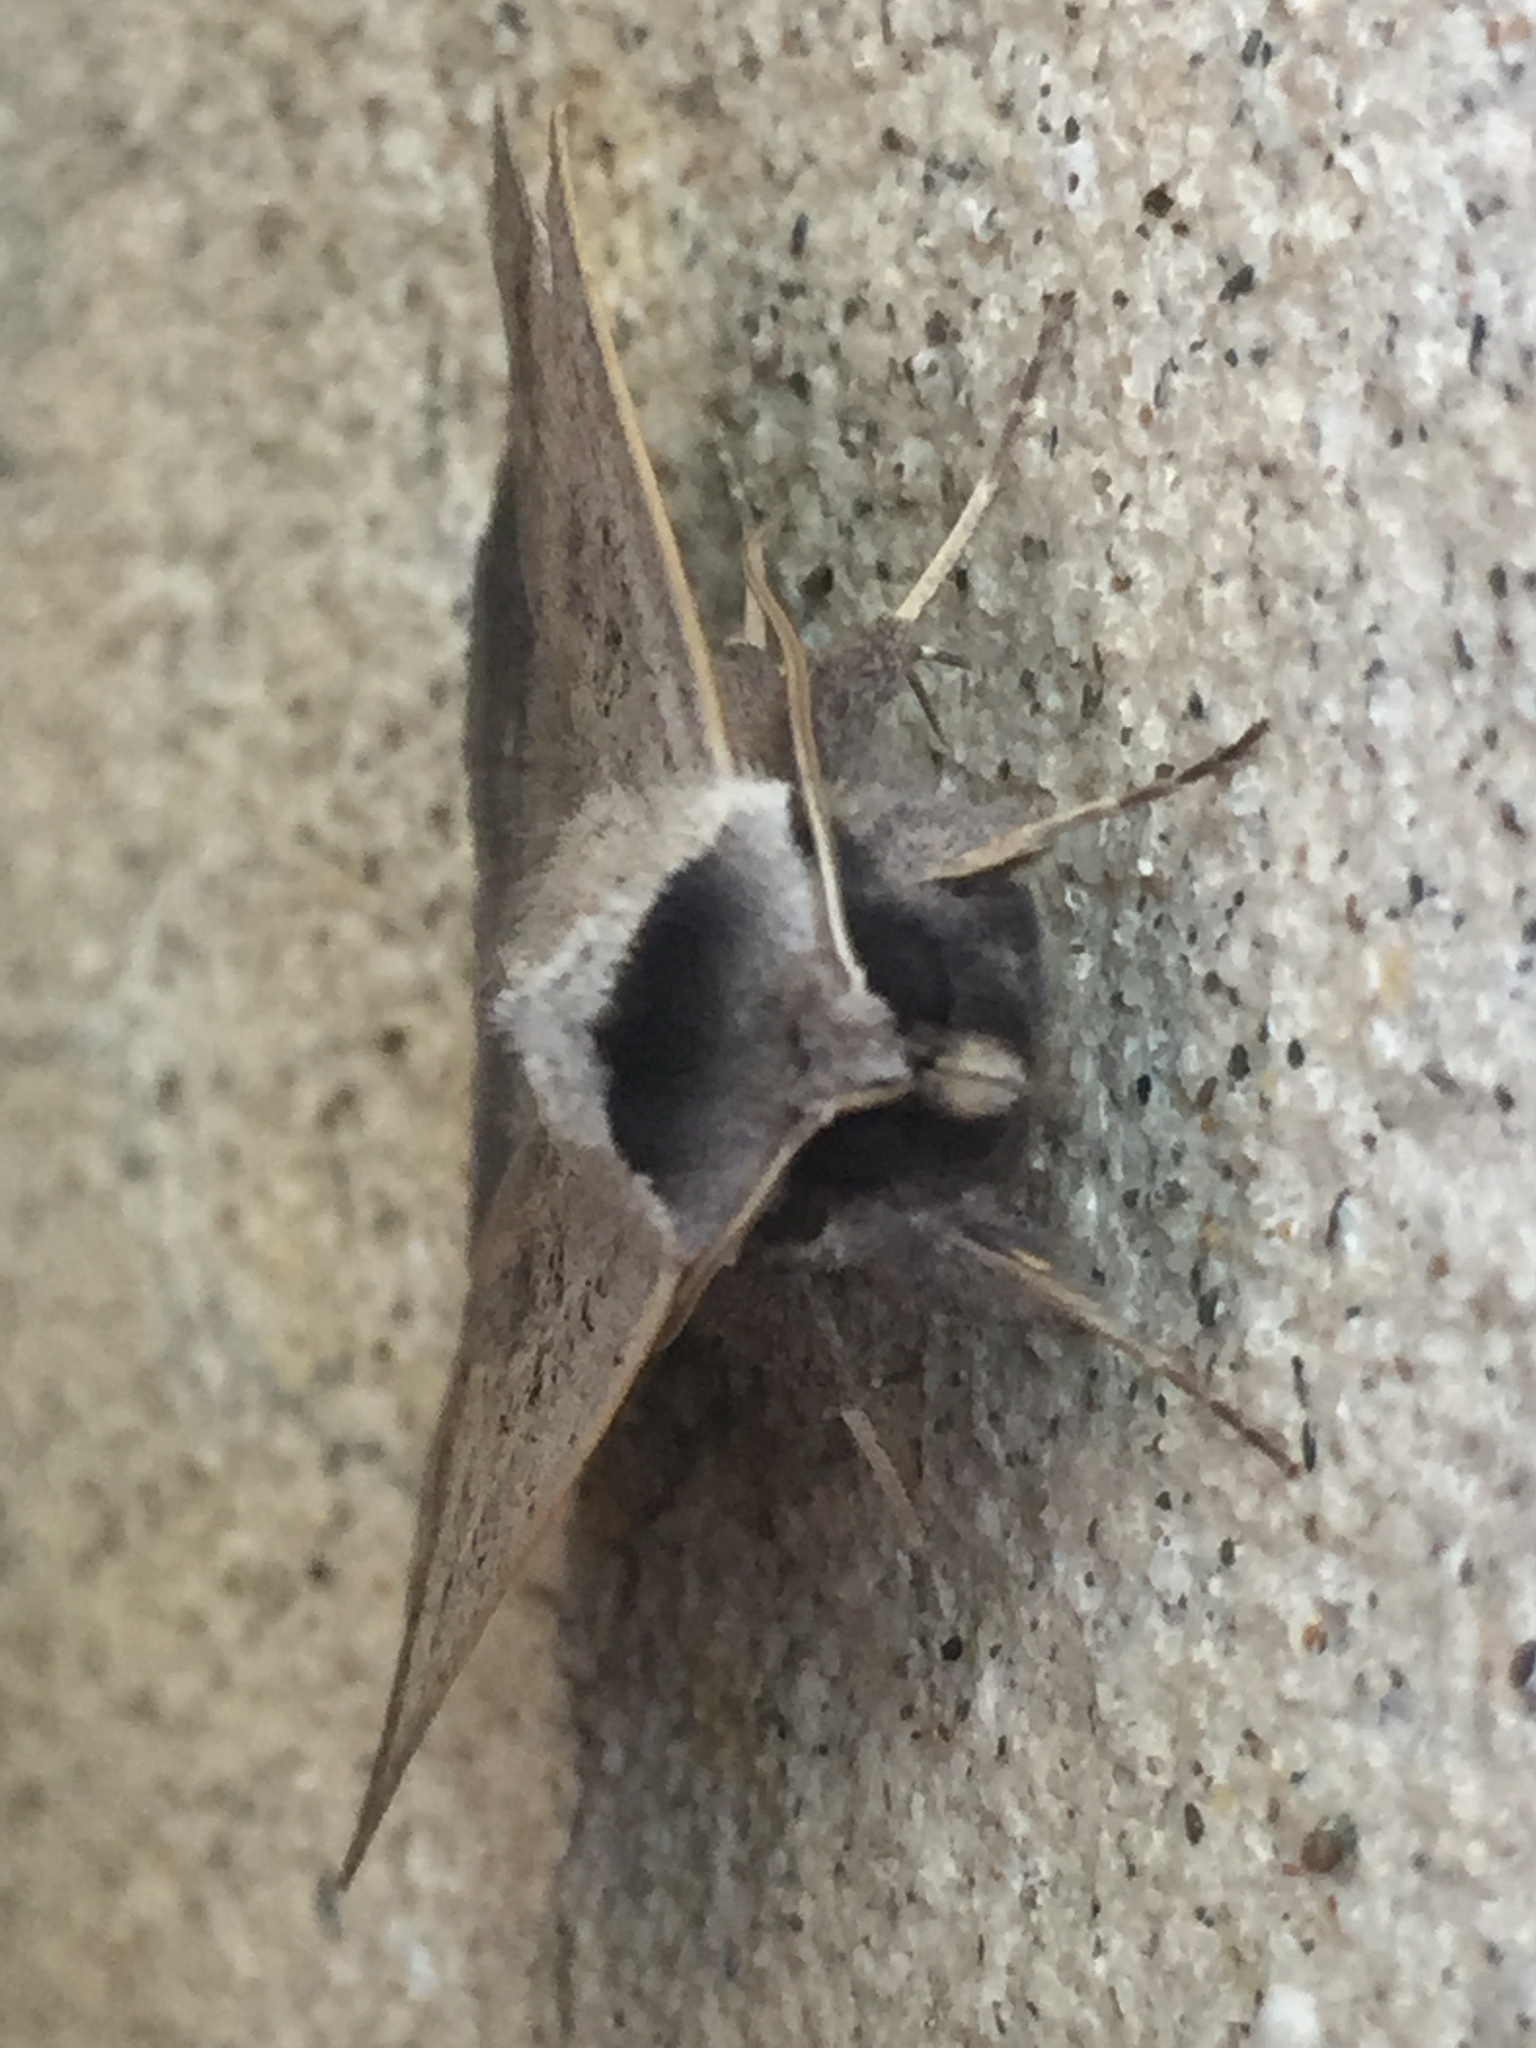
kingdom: Animalia
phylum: Arthropoda
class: Insecta
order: Lepidoptera
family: Erebidae
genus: Pantydia
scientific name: Pantydia sparsa
